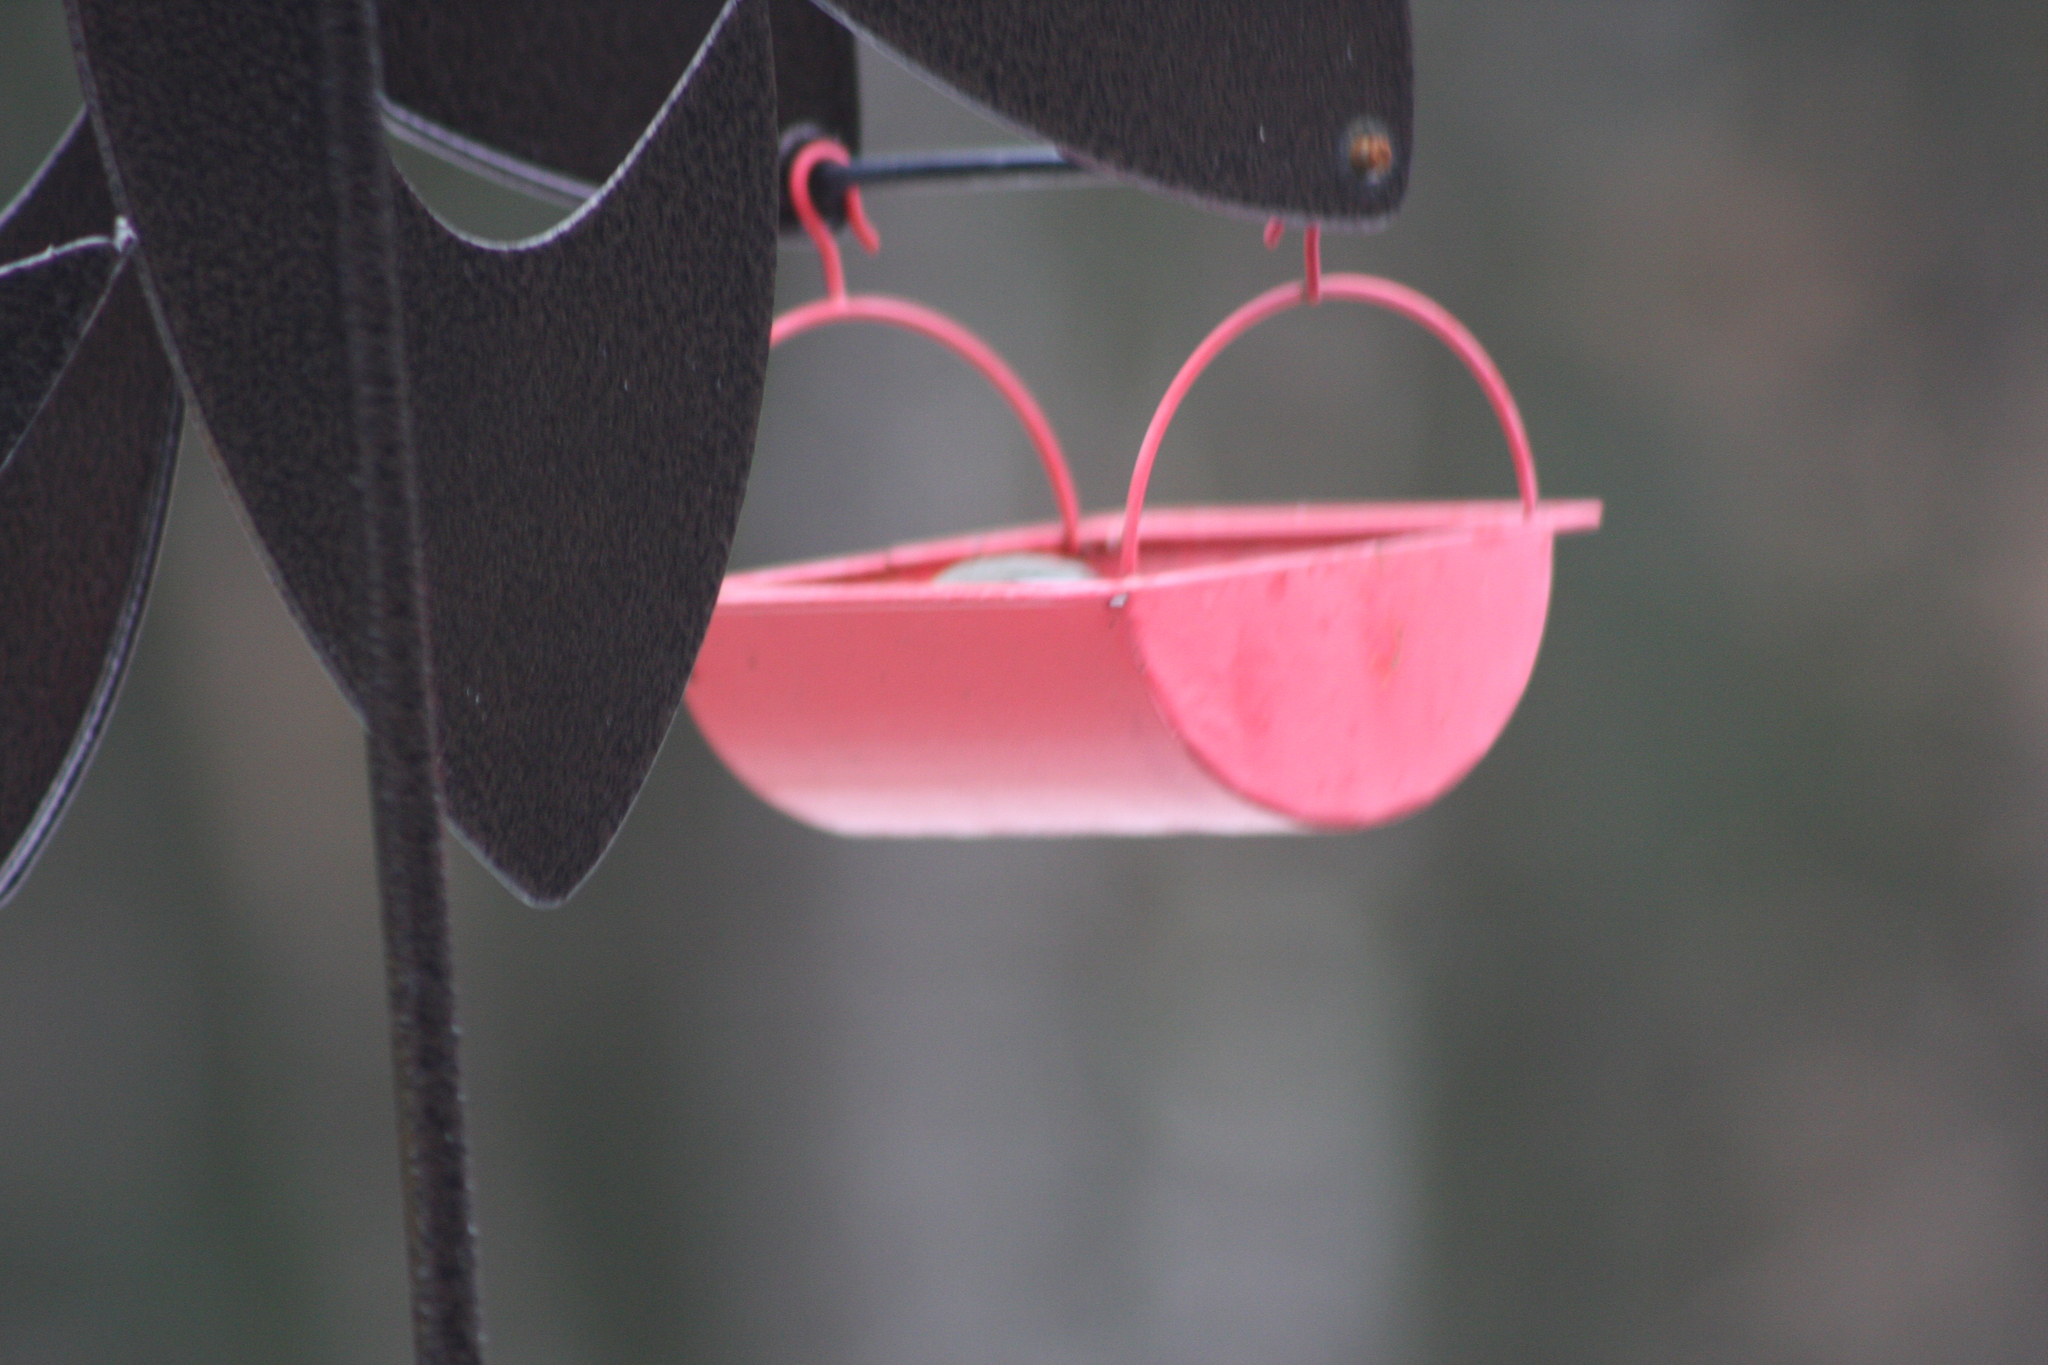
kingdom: Animalia
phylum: Chordata
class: Aves
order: Passeriformes
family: Paridae
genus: Poecile
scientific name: Poecile atricapillus
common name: Black-capped chickadee
